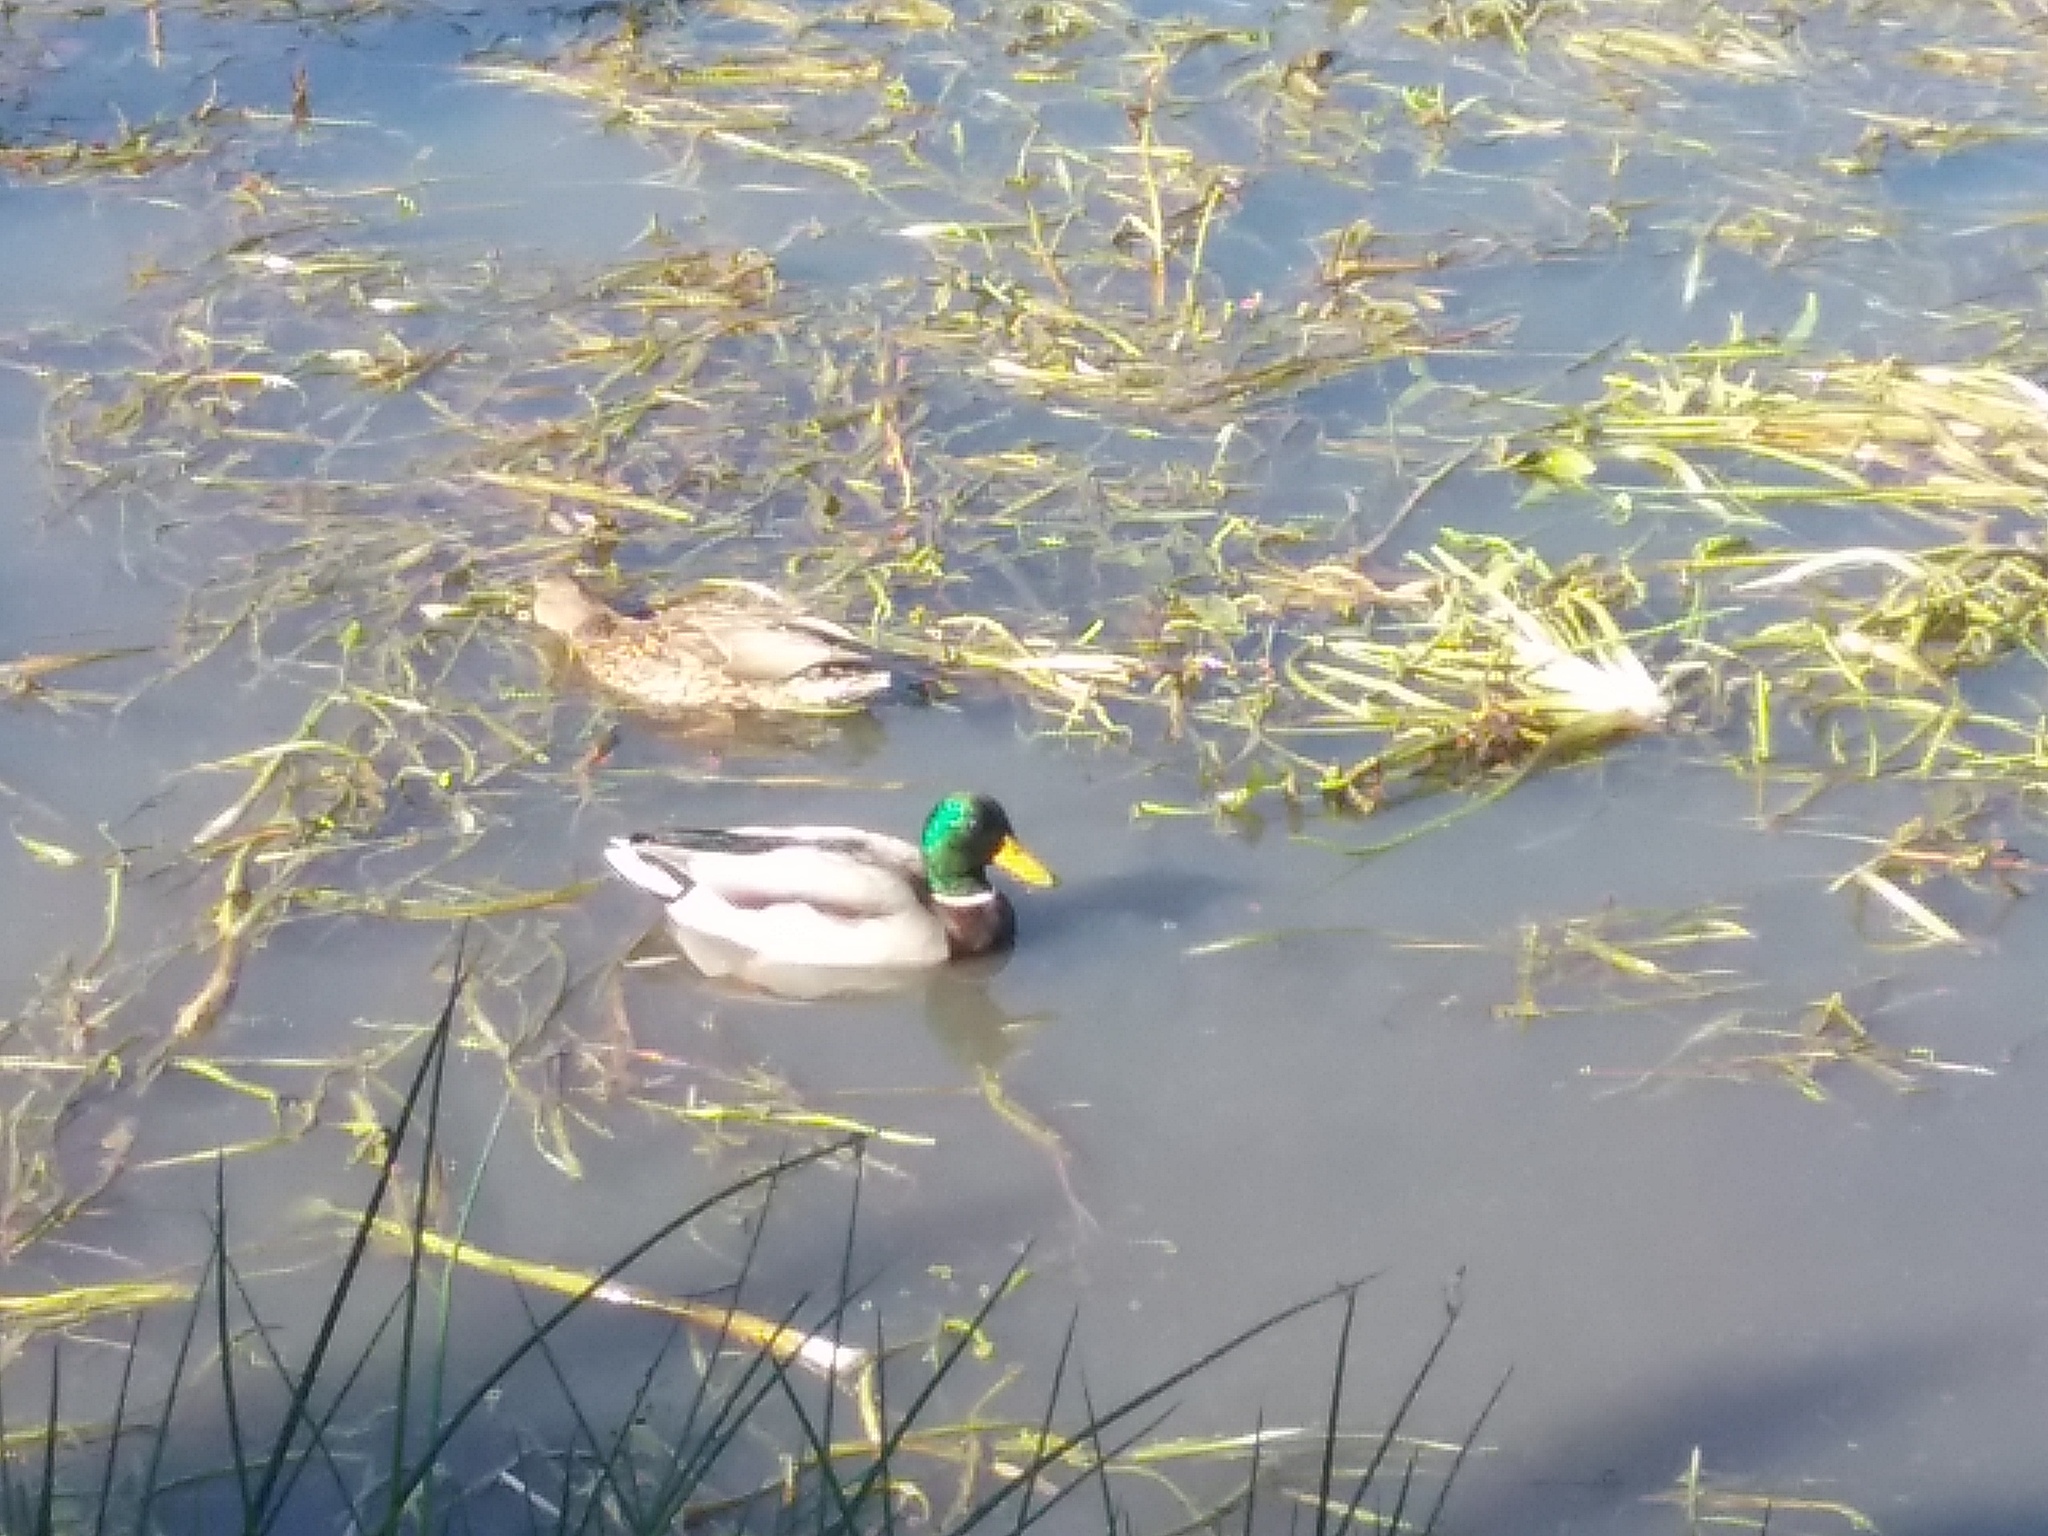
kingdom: Animalia
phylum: Chordata
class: Aves
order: Anseriformes
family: Anatidae
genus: Anas
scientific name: Anas platyrhynchos
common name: Mallard
